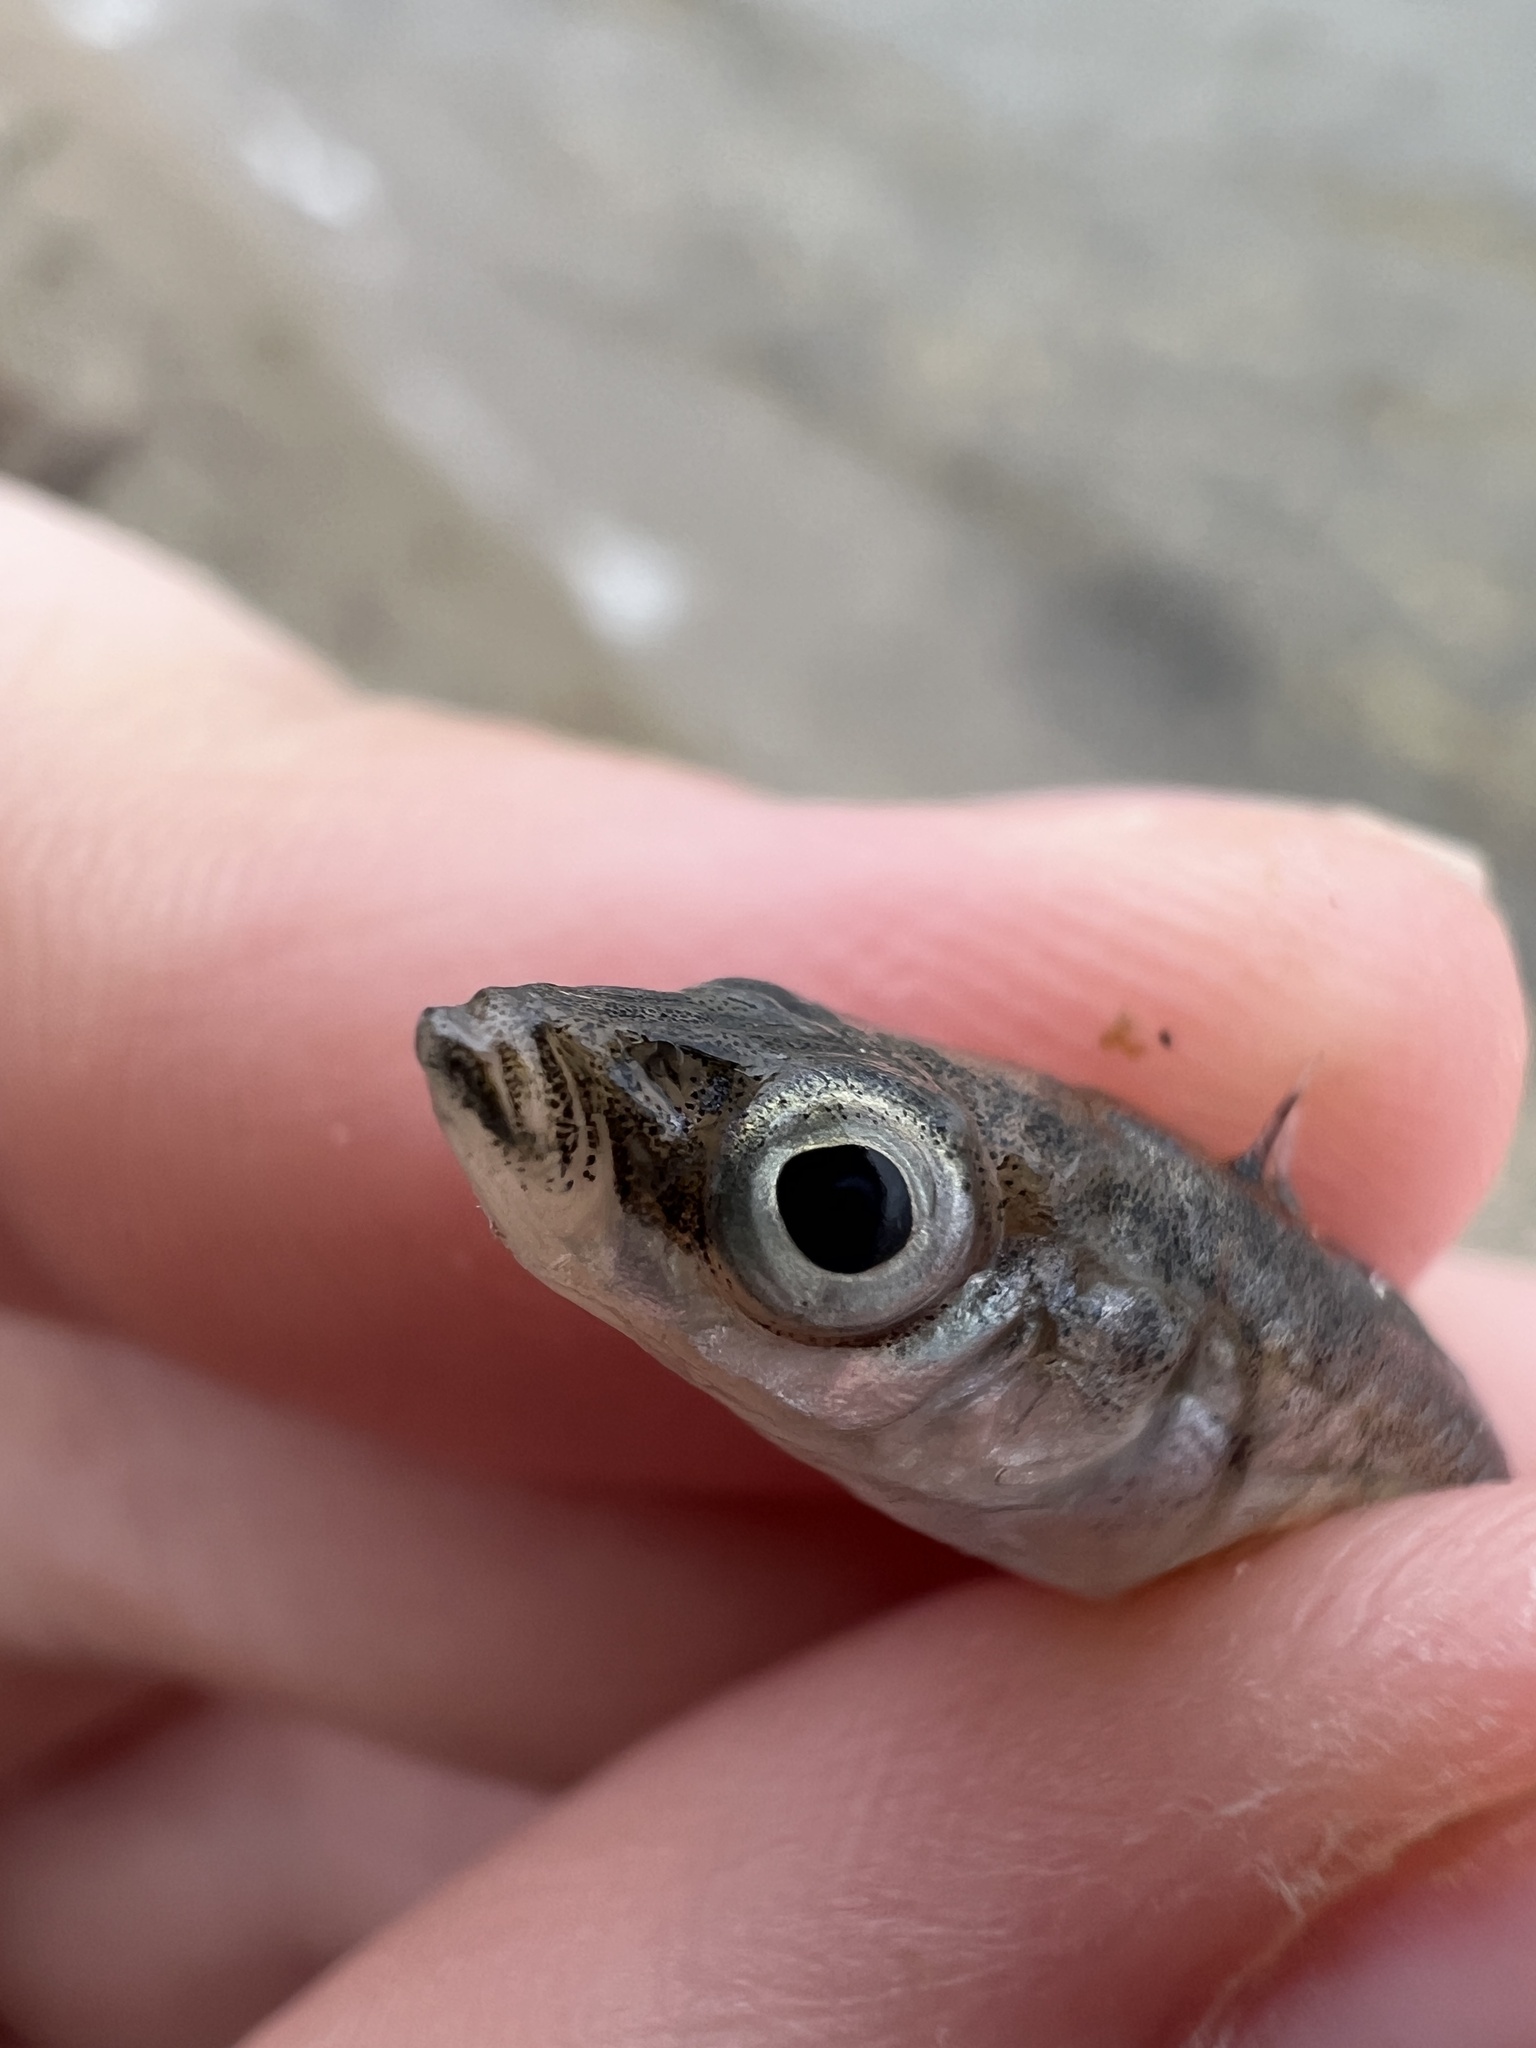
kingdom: Animalia
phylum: Chordata
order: Gasterosteiformes
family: Gasterosteidae
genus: Pungitius
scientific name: Pungitius pungitius
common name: Nine-spined stickleback
